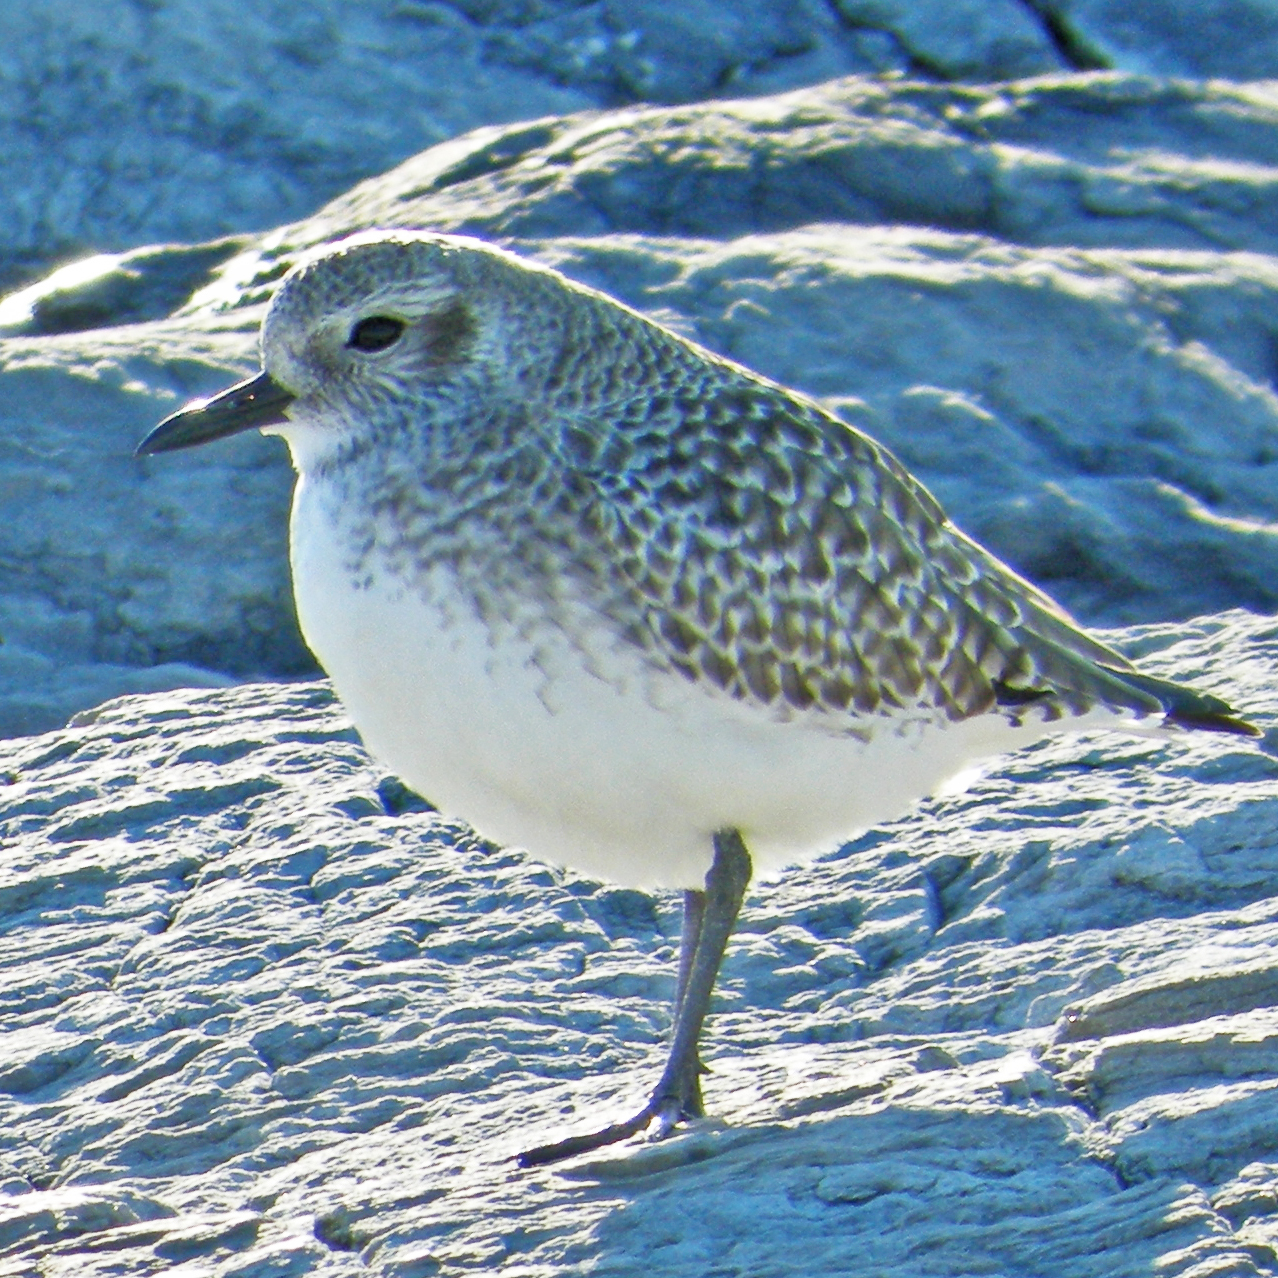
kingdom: Animalia
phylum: Chordata
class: Aves
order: Charadriiformes
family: Charadriidae
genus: Pluvialis
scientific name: Pluvialis squatarola
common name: Grey plover
